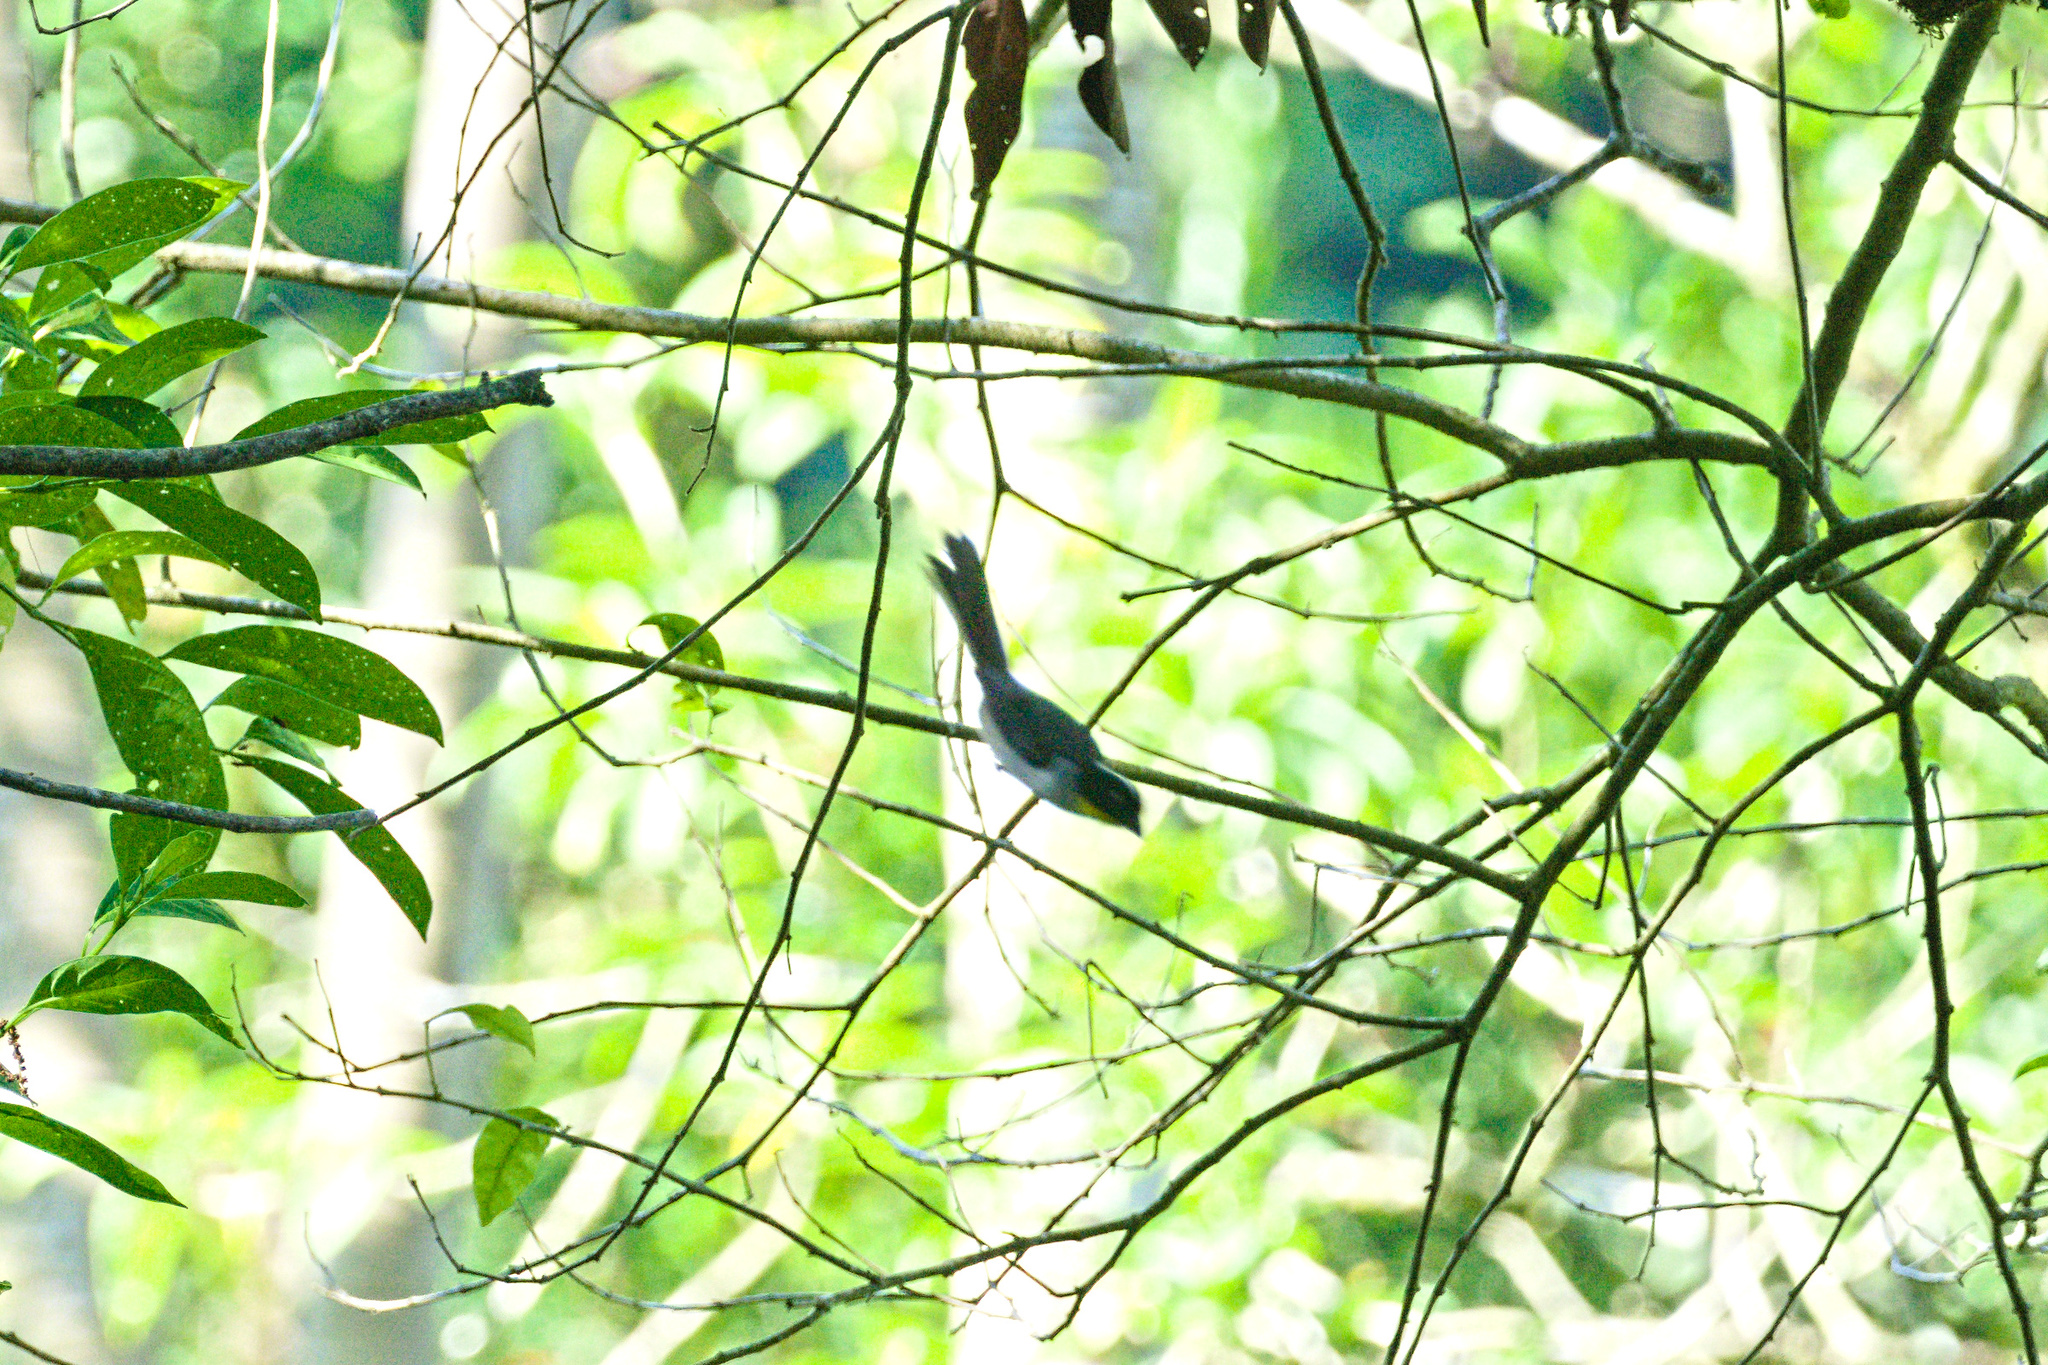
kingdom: Animalia
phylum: Chordata
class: Aves
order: Passeriformes
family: Passerellidae
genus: Atlapetes
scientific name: Atlapetes albinucha
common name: White-naped brush-finch
